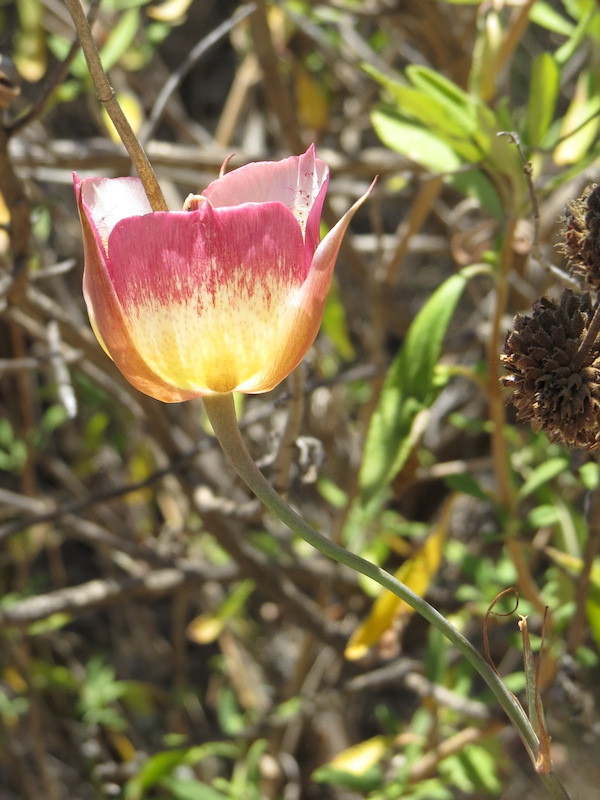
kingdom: Plantae
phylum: Tracheophyta
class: Liliopsida
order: Liliales
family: Liliaceae
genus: Calochortus
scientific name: Calochortus plummerae
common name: Plummer's mariposa-lily
